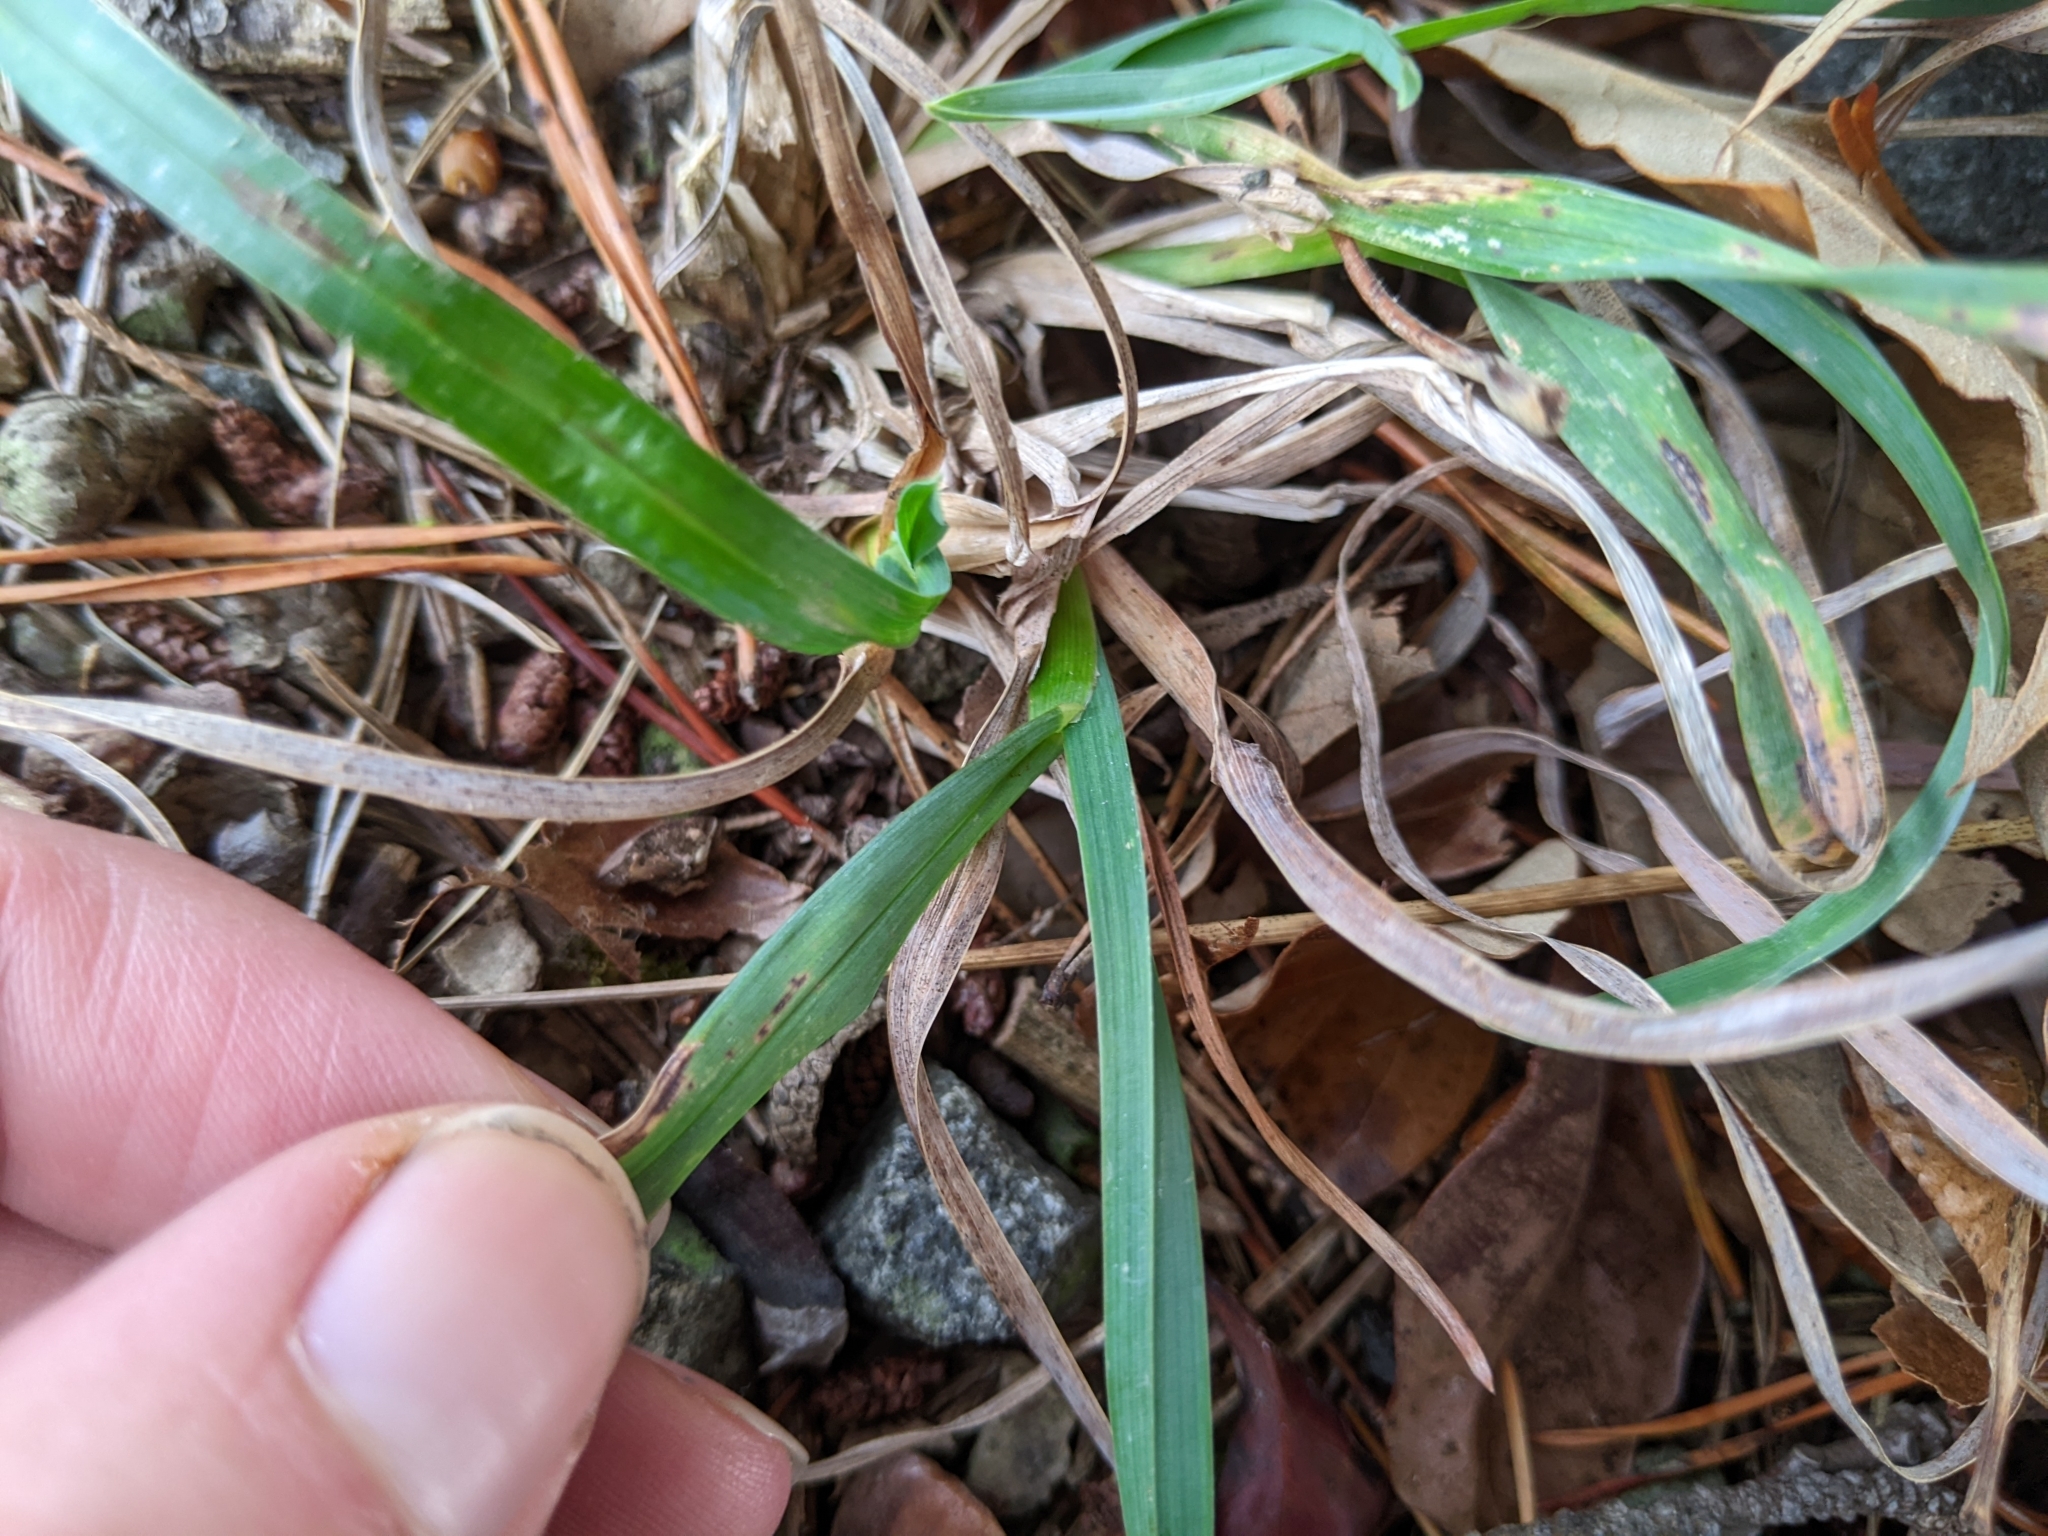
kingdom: Plantae
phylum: Tracheophyta
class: Liliopsida
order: Poales
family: Poaceae
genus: Dactylis
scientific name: Dactylis glomerata
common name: Orchardgrass
